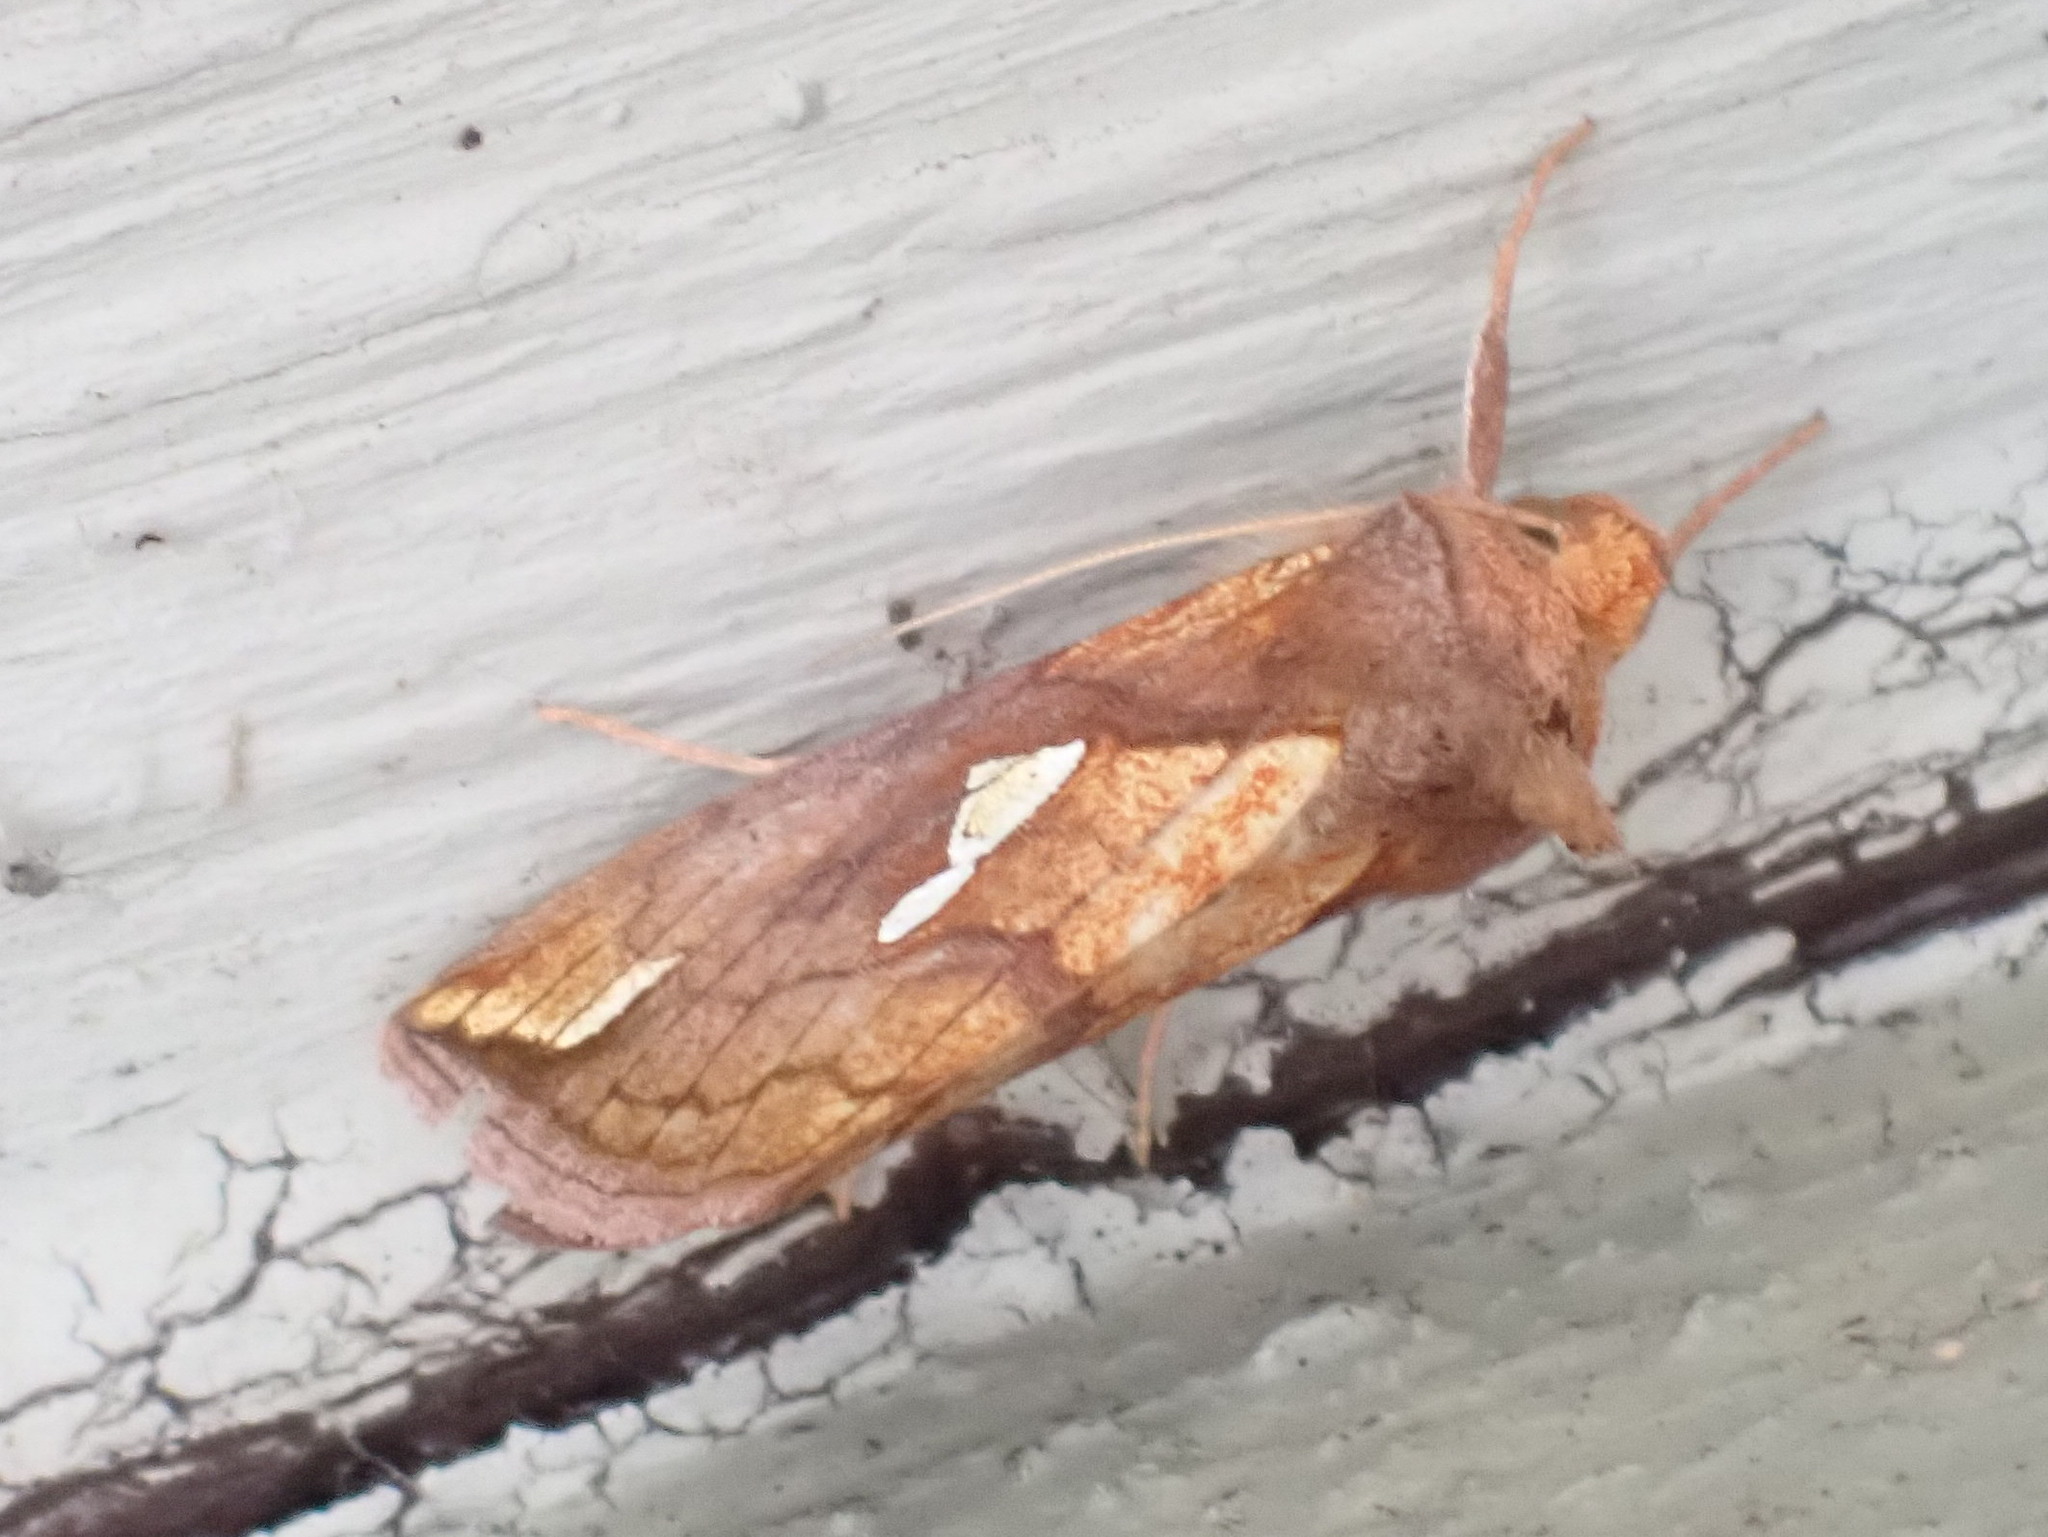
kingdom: Animalia
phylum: Arthropoda
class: Insecta
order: Lepidoptera
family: Noctuidae
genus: Plusia
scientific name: Plusia putnami
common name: Lempke's gold spot
